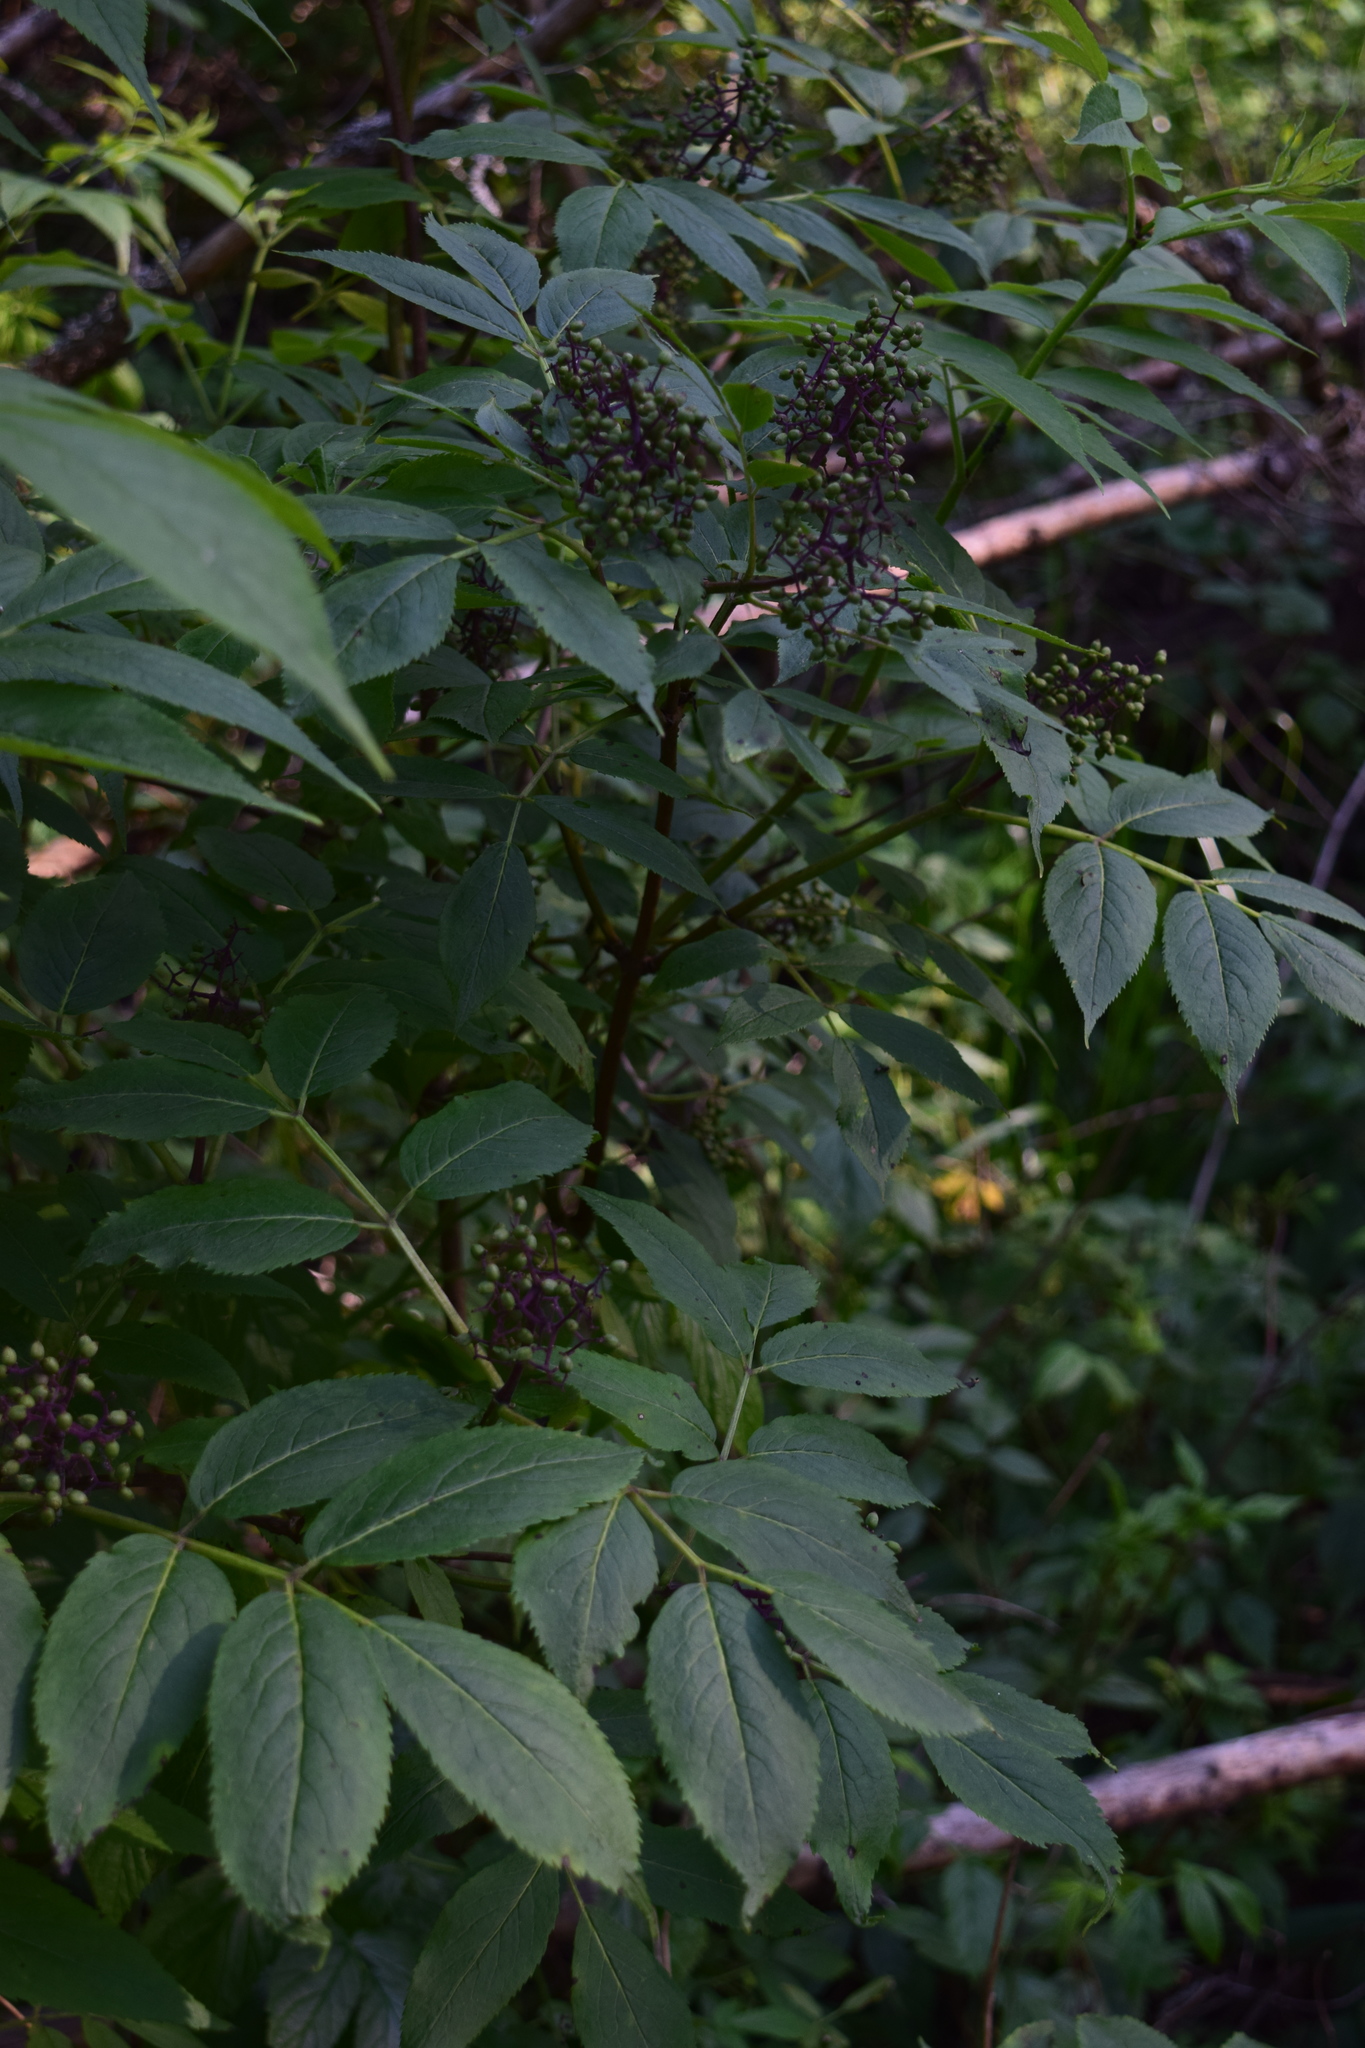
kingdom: Plantae
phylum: Tracheophyta
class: Magnoliopsida
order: Dipsacales
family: Viburnaceae
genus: Sambucus
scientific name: Sambucus racemosa
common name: Red-berried elder
